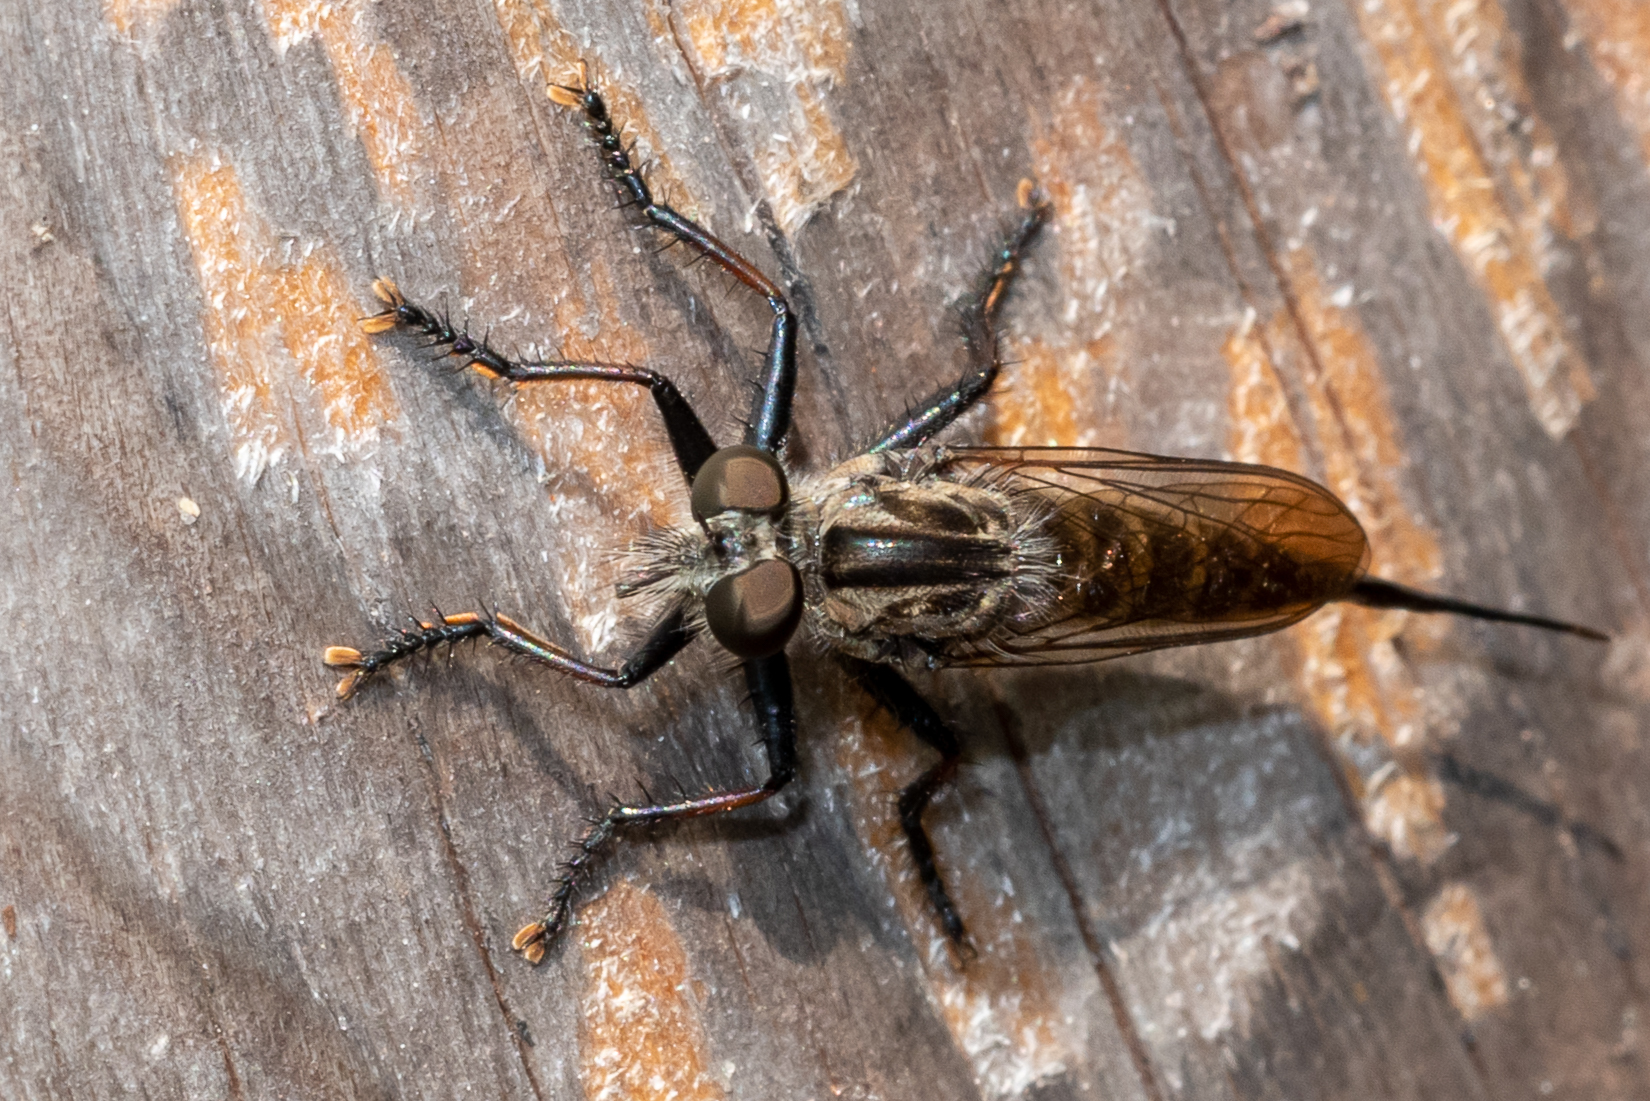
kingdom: Animalia
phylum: Arthropoda
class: Insecta
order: Diptera
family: Asilidae
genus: Efferia
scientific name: Efferia aestuans
